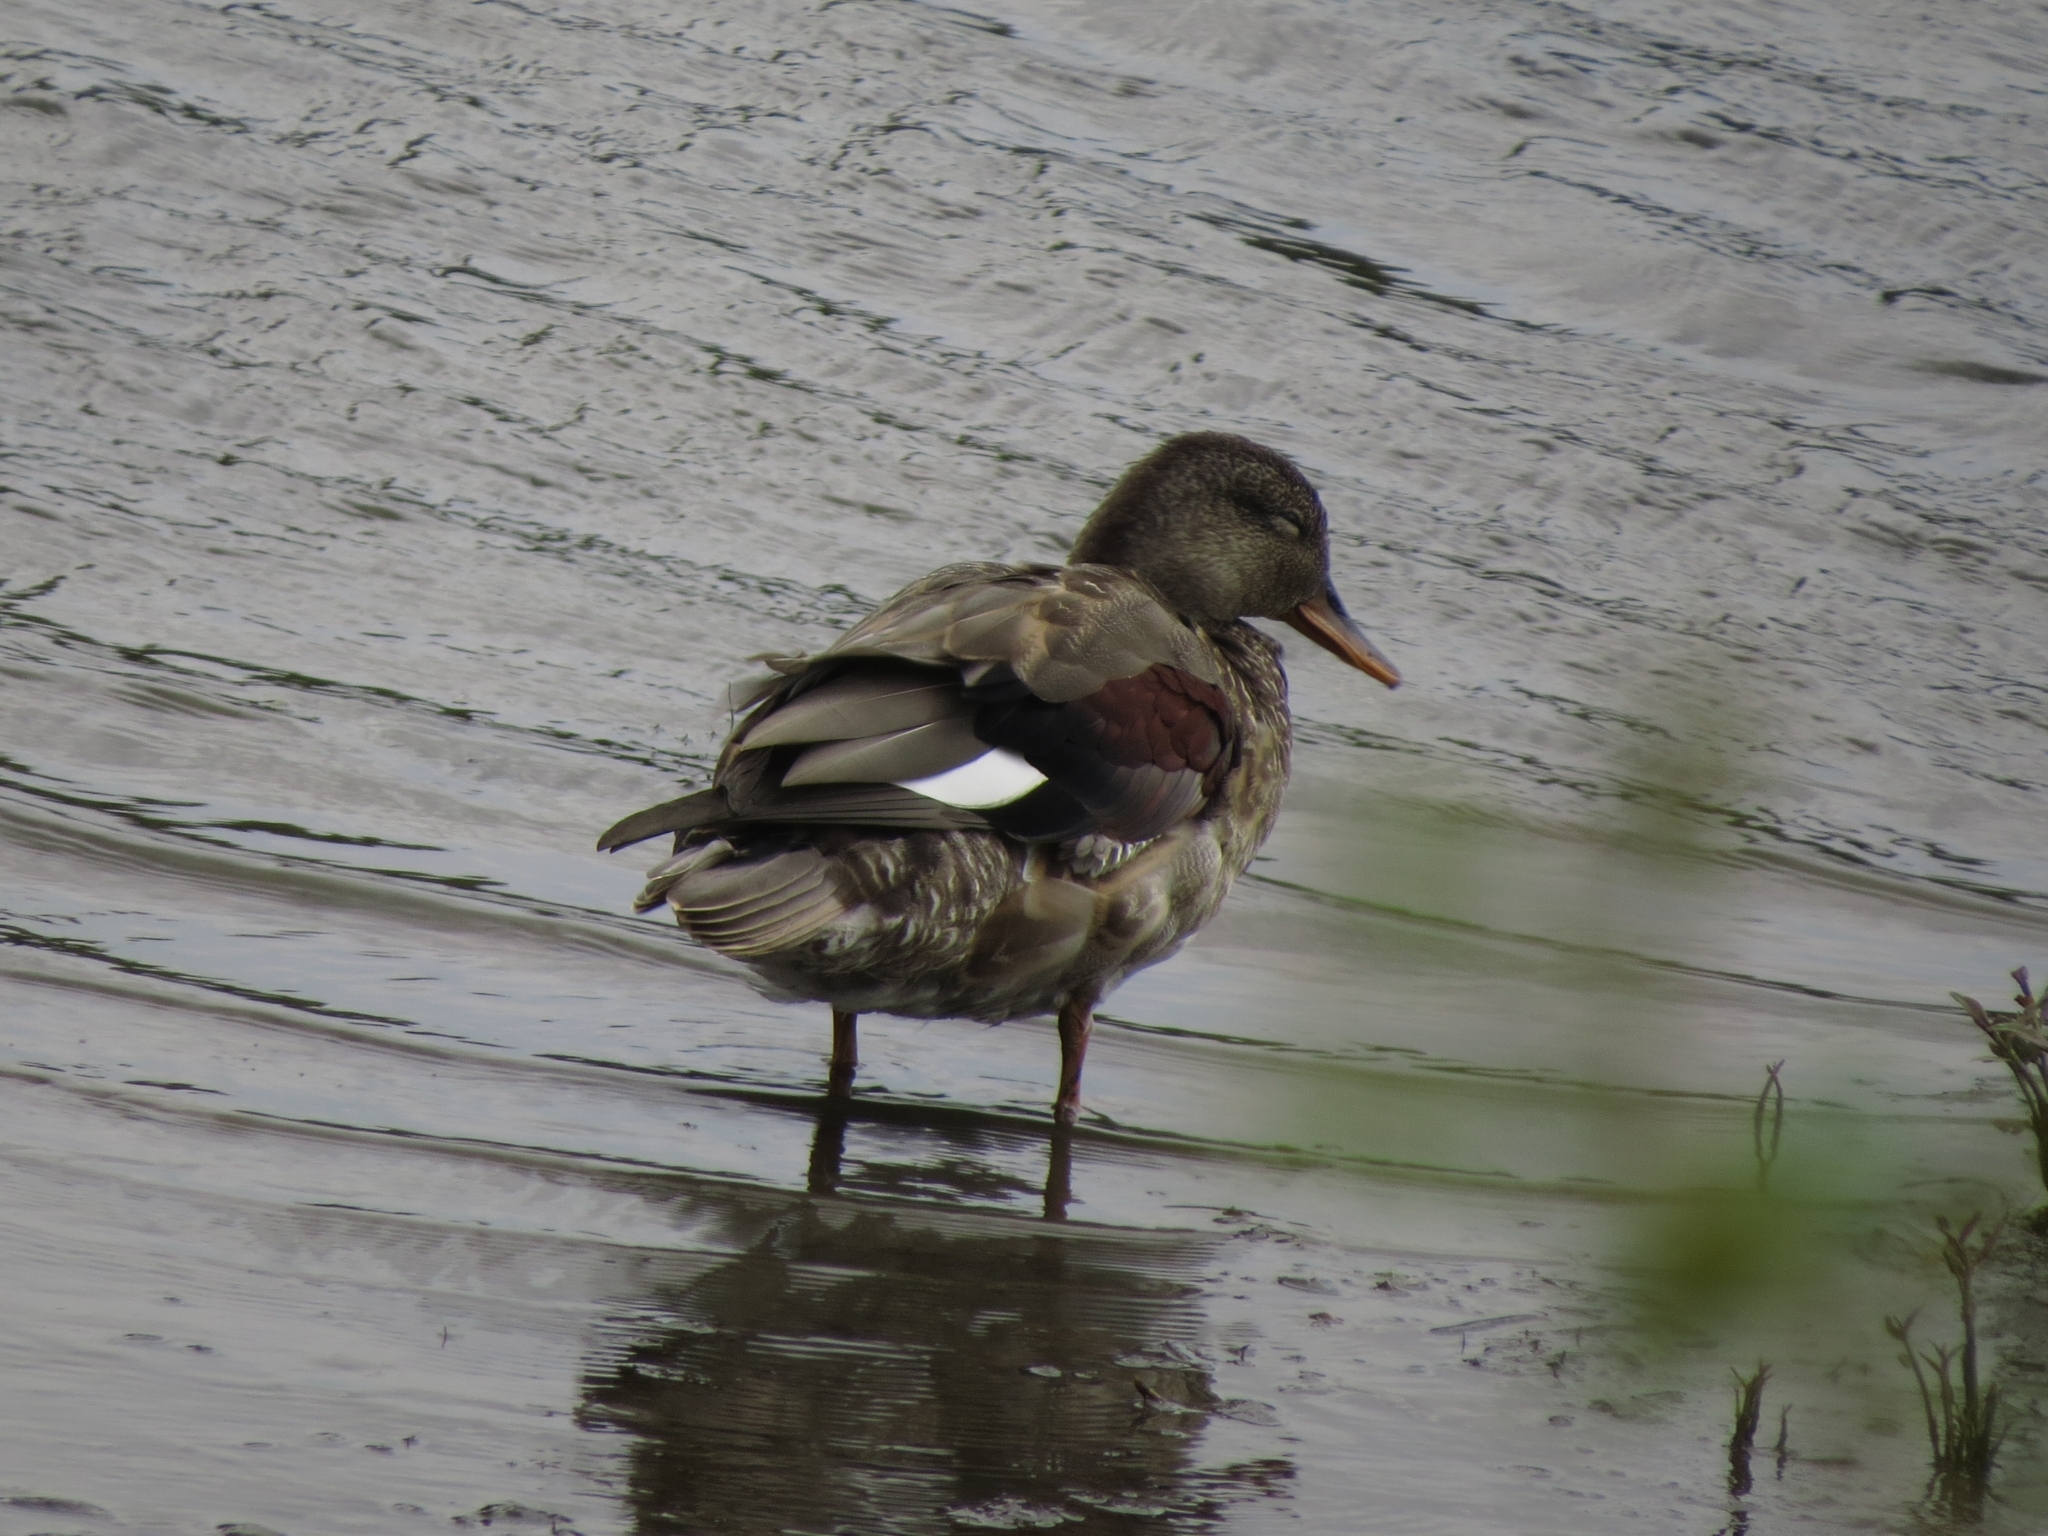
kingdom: Animalia
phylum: Chordata
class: Aves
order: Anseriformes
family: Anatidae
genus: Mareca
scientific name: Mareca strepera
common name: Gadwall
